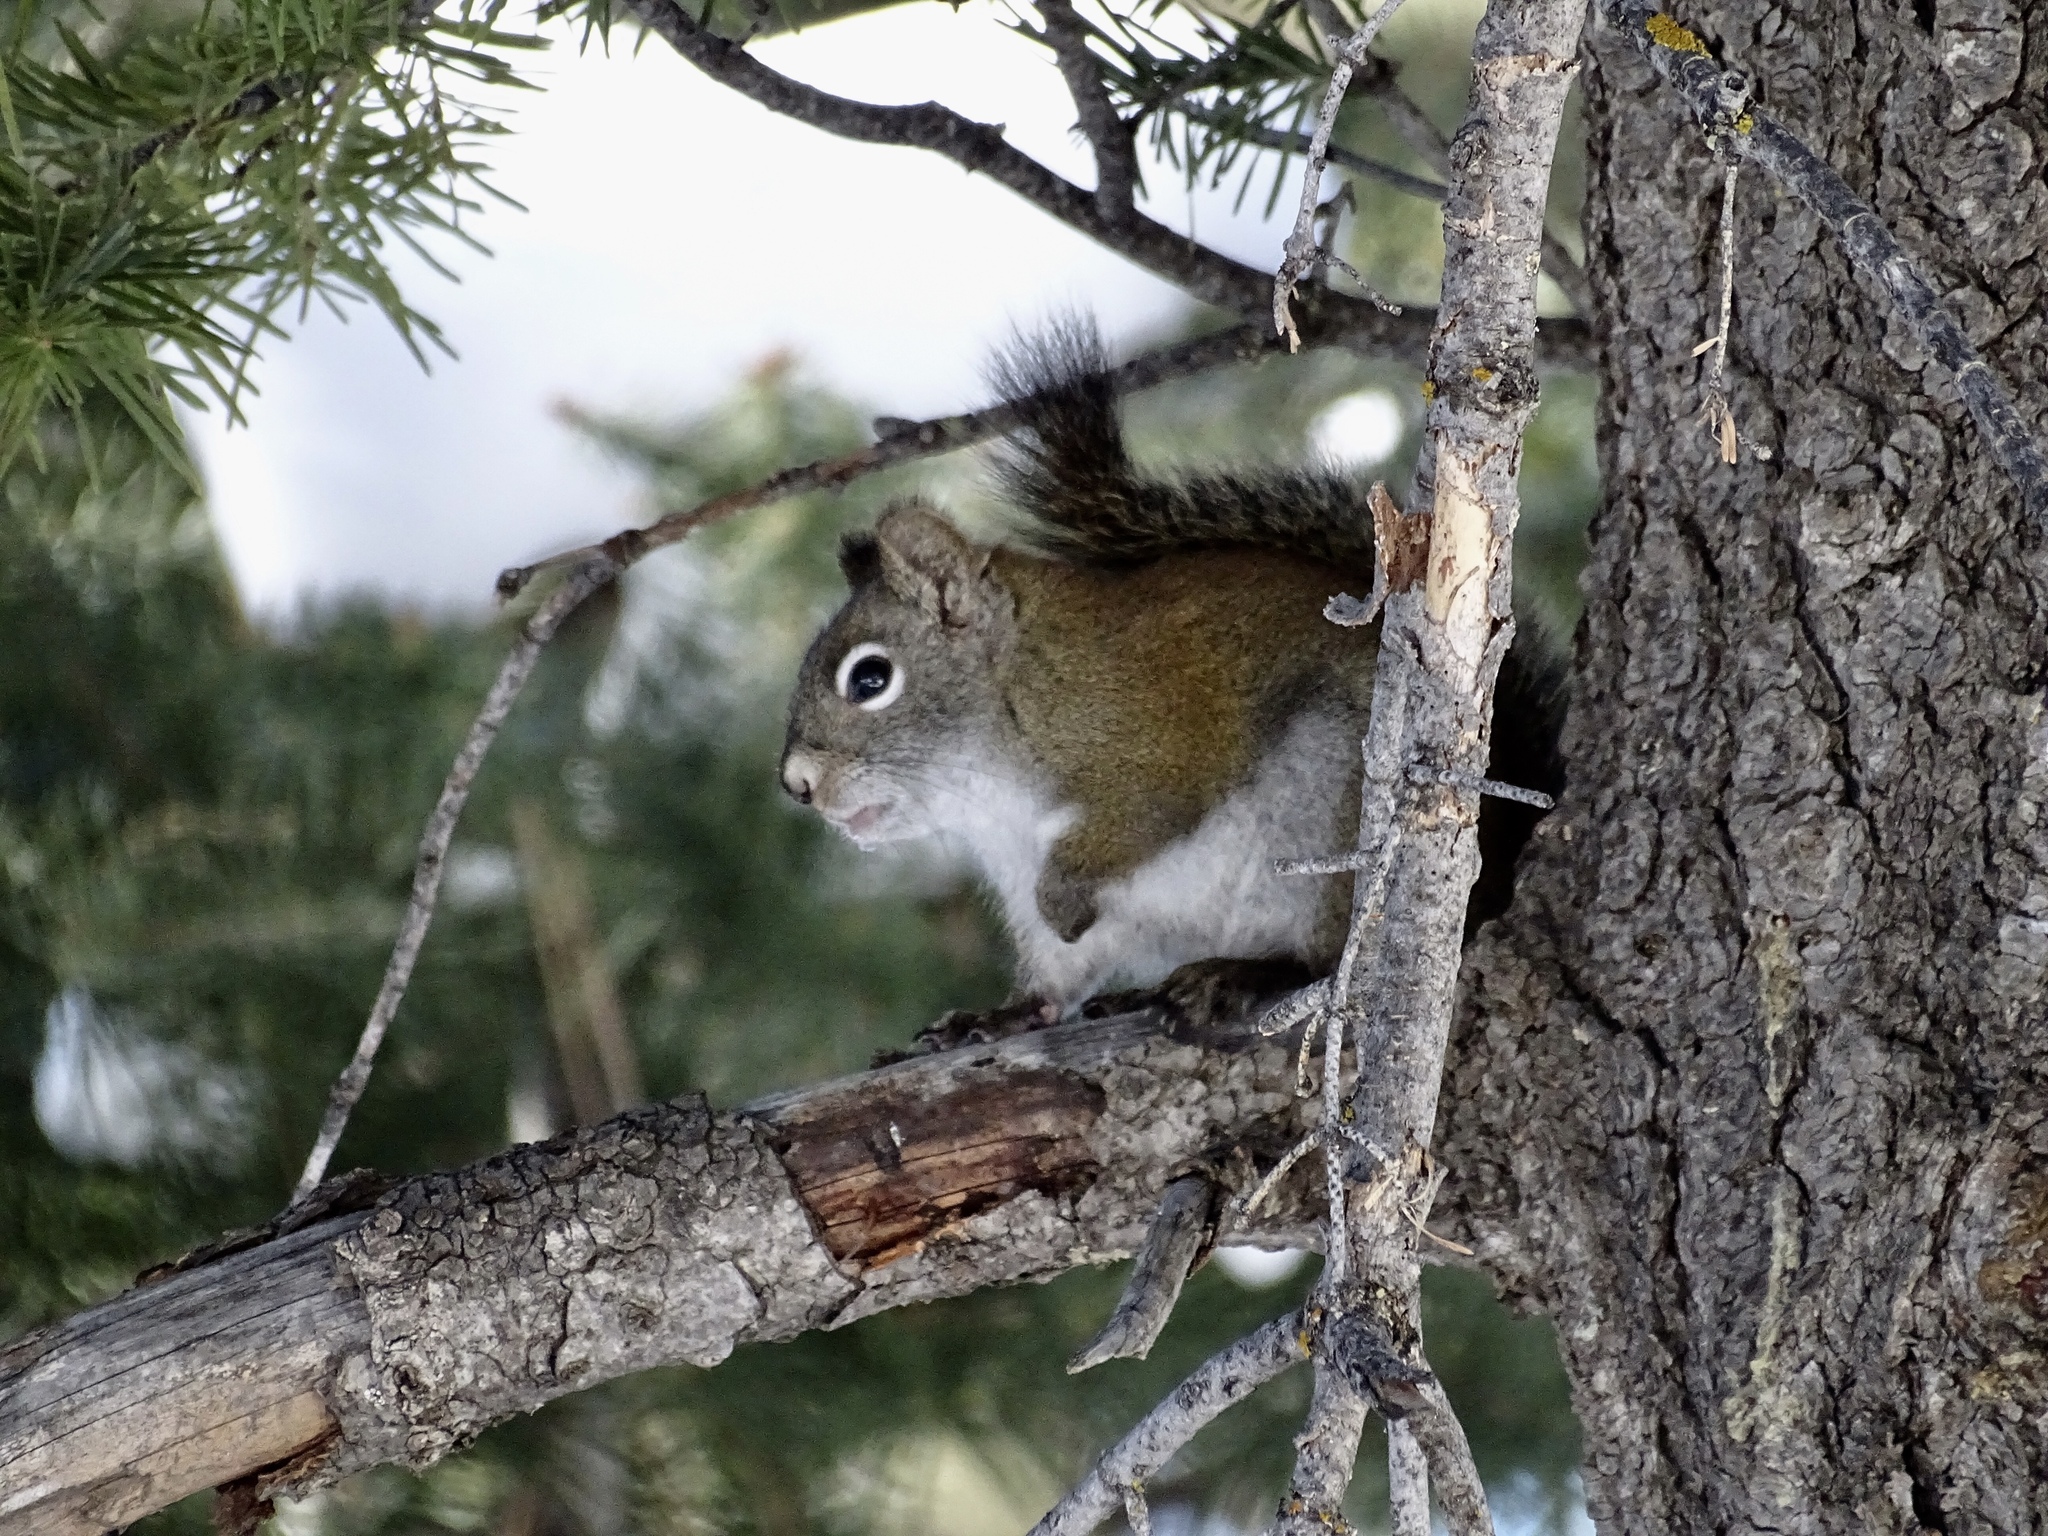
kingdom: Animalia
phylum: Chordata
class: Mammalia
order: Rodentia
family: Sciuridae
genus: Tamiasciurus
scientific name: Tamiasciurus hudsonicus
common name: Red squirrel
